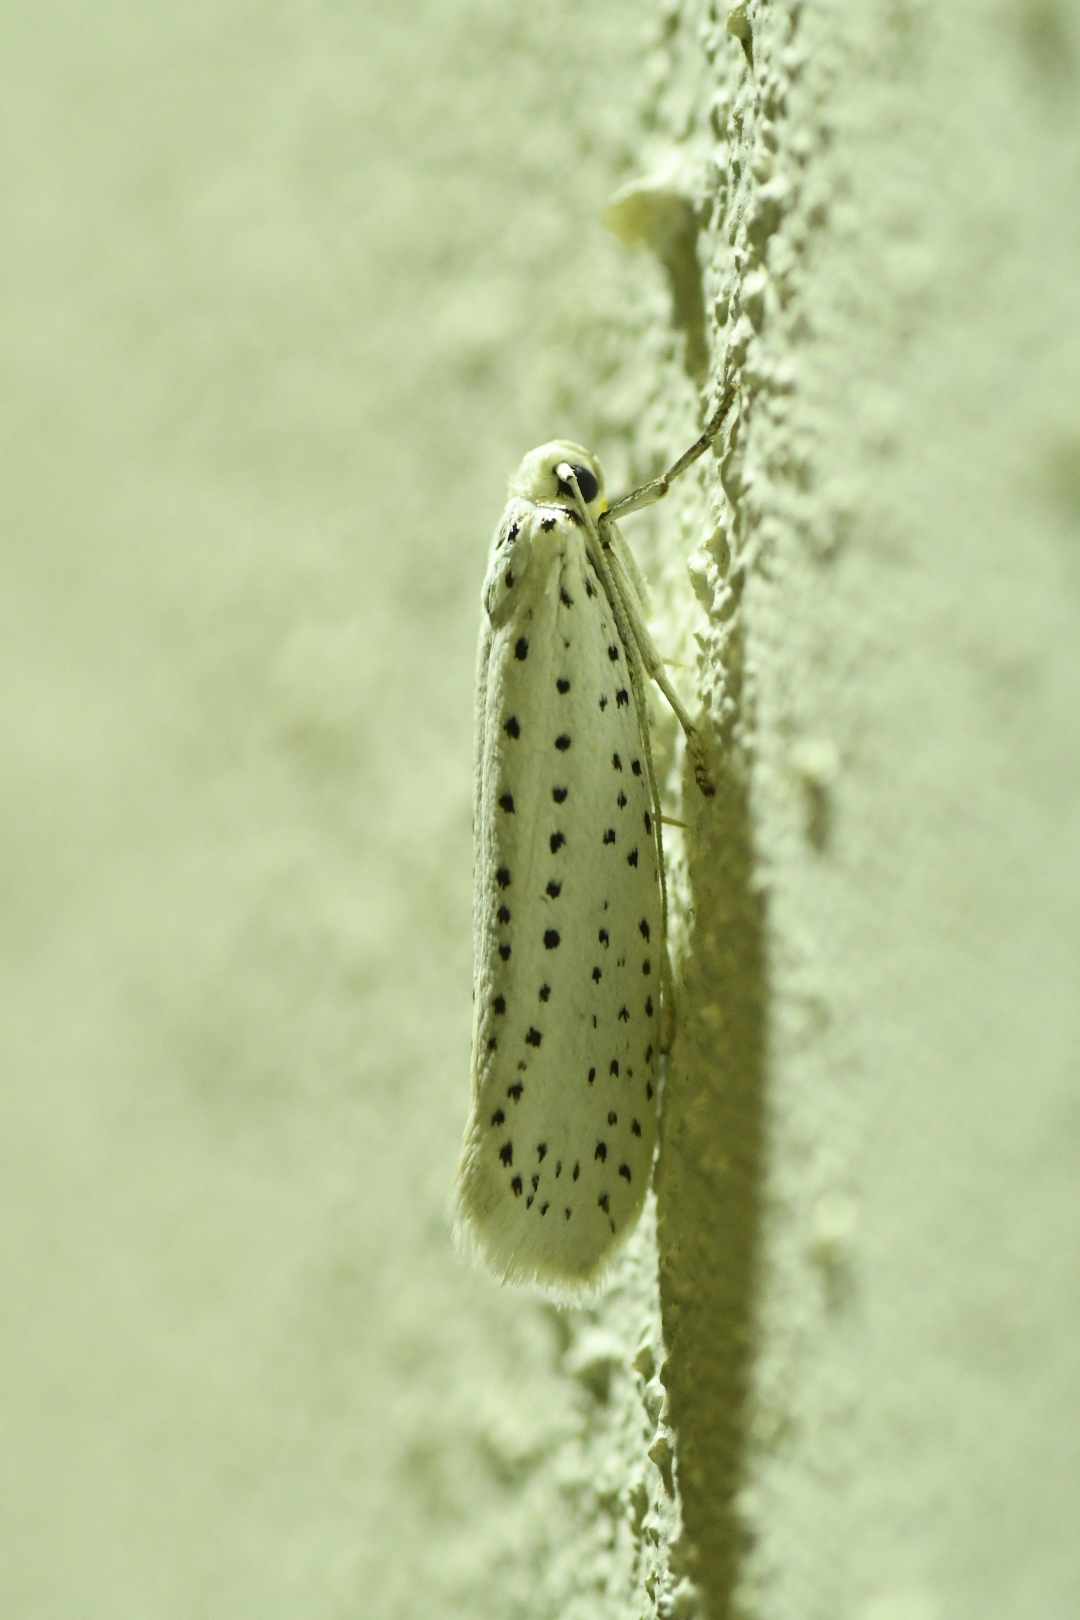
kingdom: Animalia
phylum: Arthropoda
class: Insecta
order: Lepidoptera
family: Yponomeutidae
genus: Yponomeuta
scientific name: Yponomeuta evonymella
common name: Bird-cherry ermine
